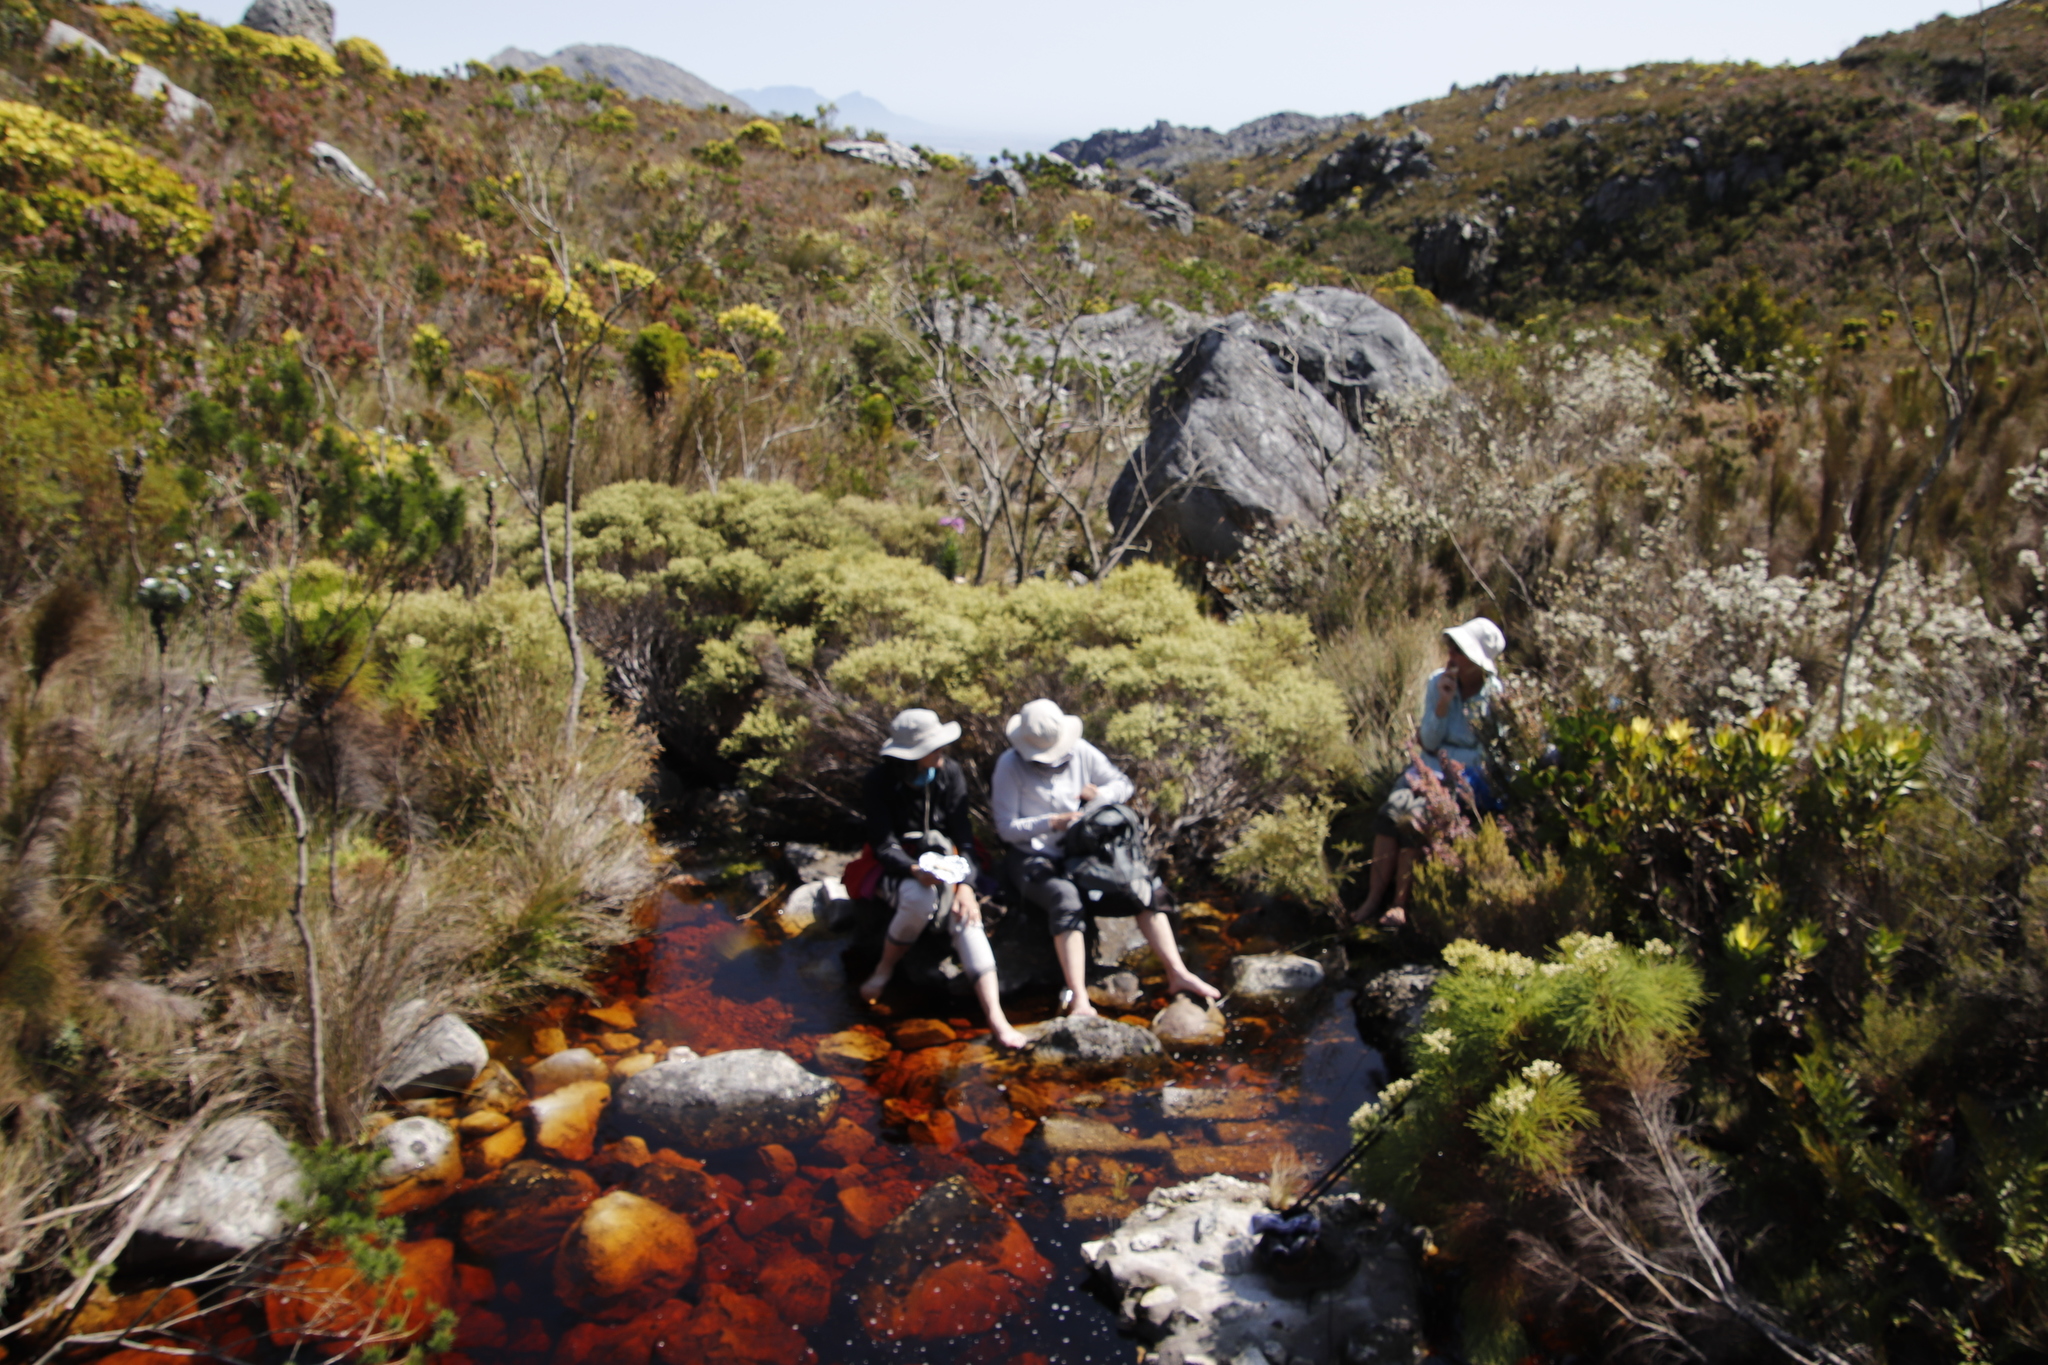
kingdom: Plantae
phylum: Tracheophyta
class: Magnoliopsida
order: Bruniales
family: Bruniaceae
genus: Brunia
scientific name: Brunia africana
